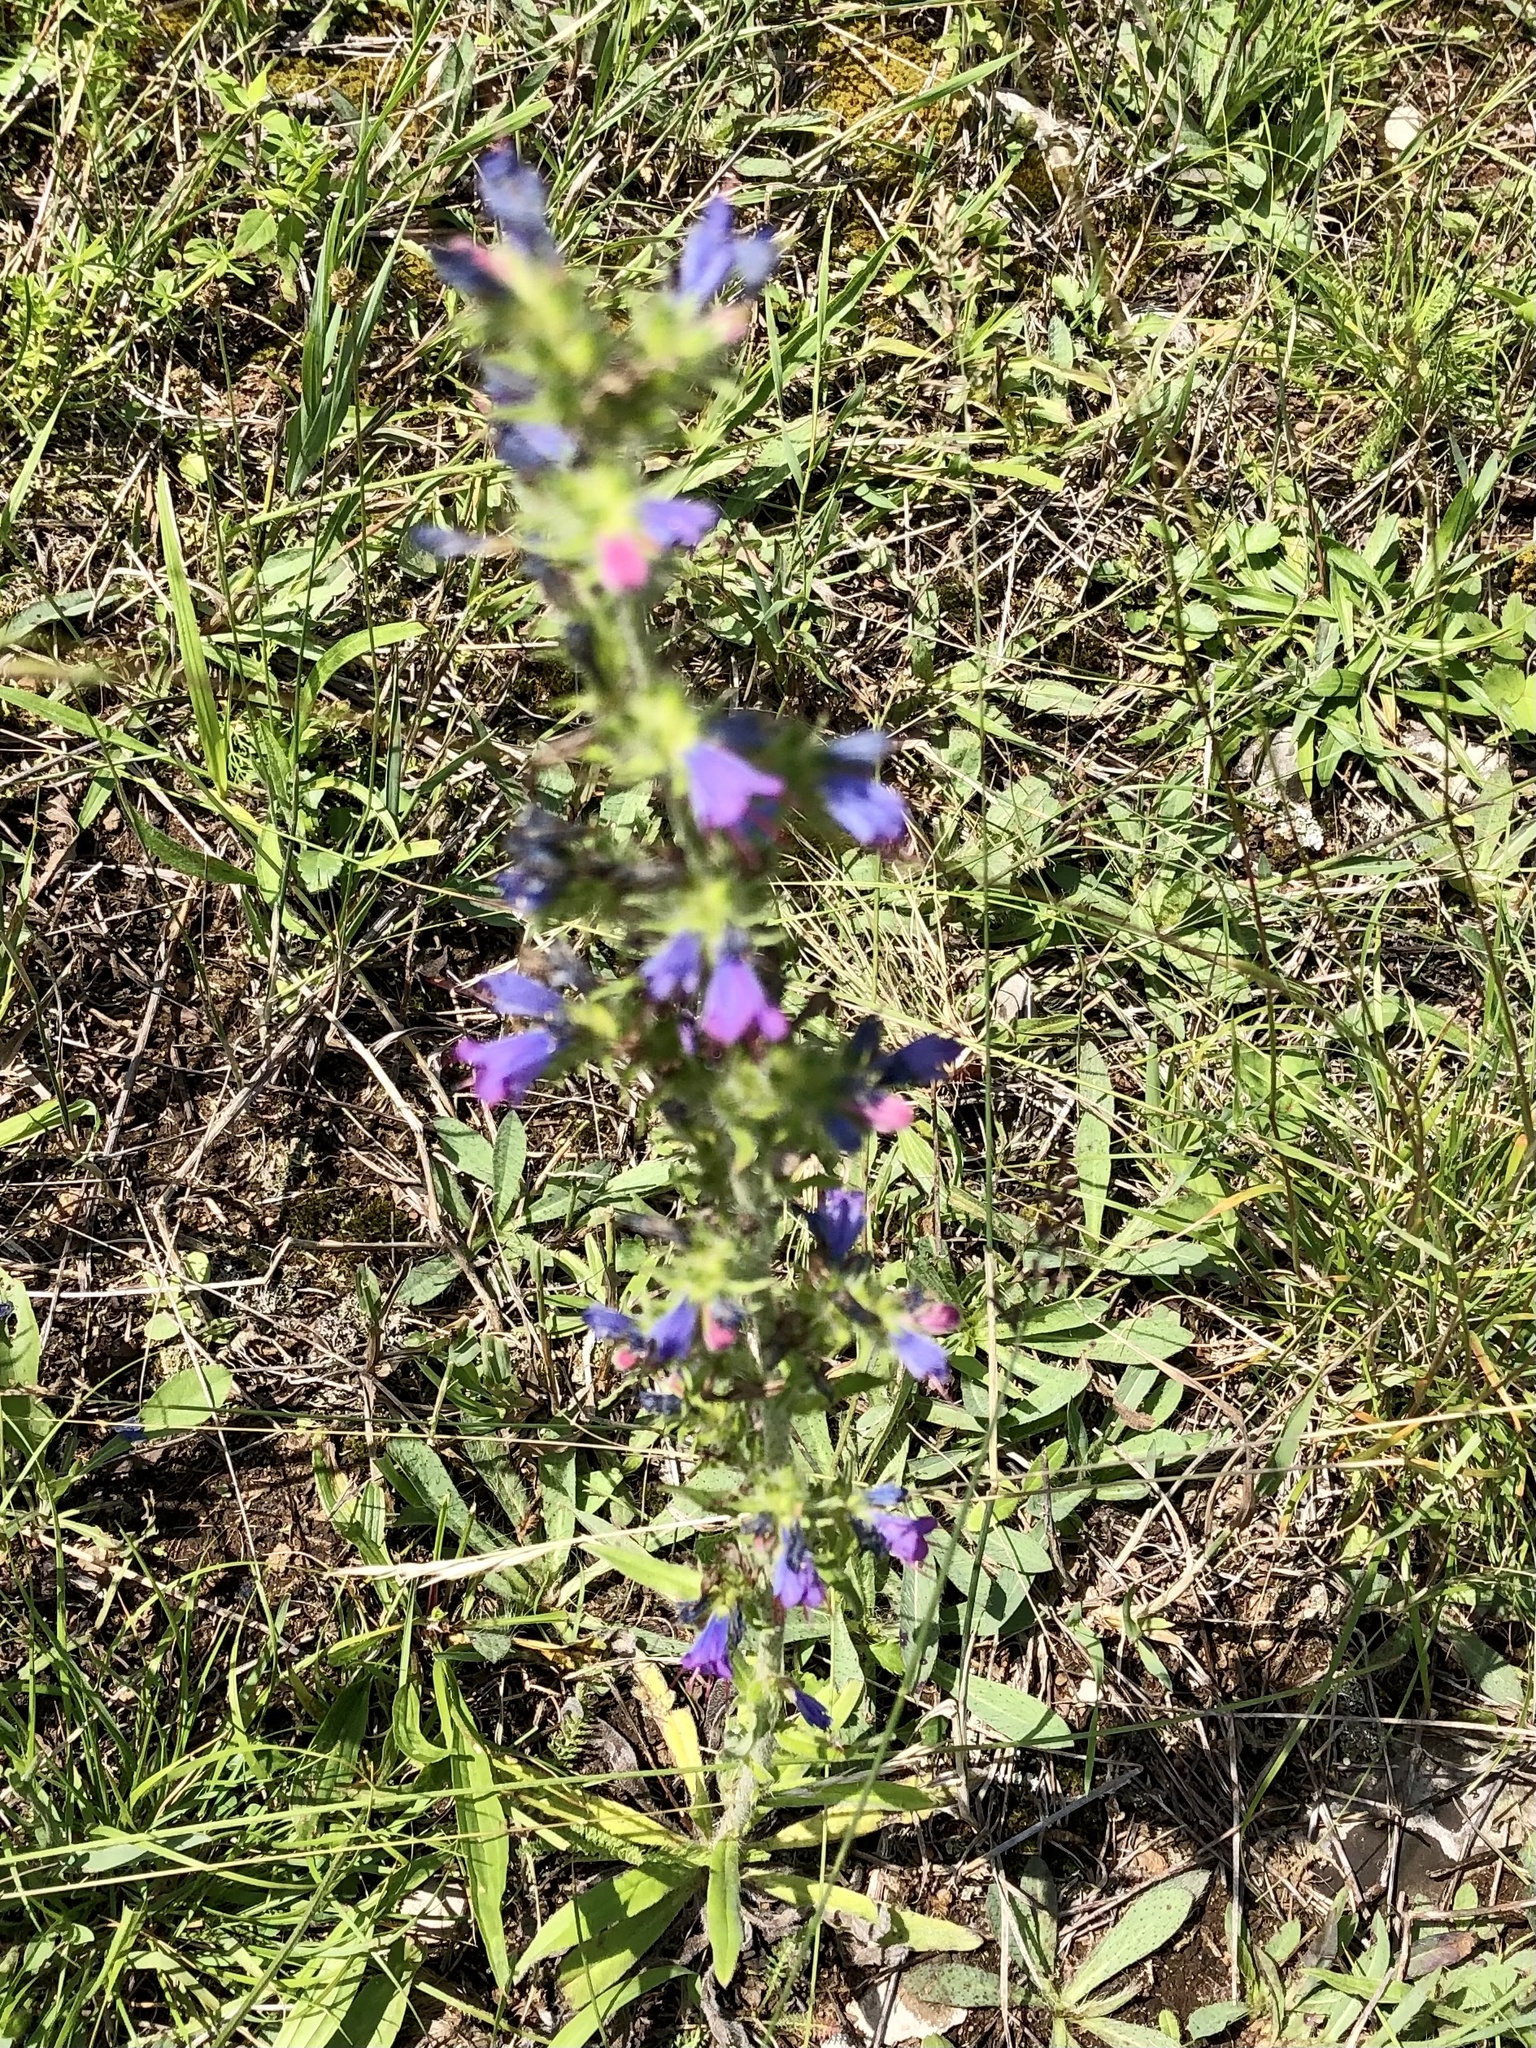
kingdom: Plantae
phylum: Tracheophyta
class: Magnoliopsida
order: Boraginales
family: Boraginaceae
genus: Echium
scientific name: Echium vulgare
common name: Common viper's bugloss
